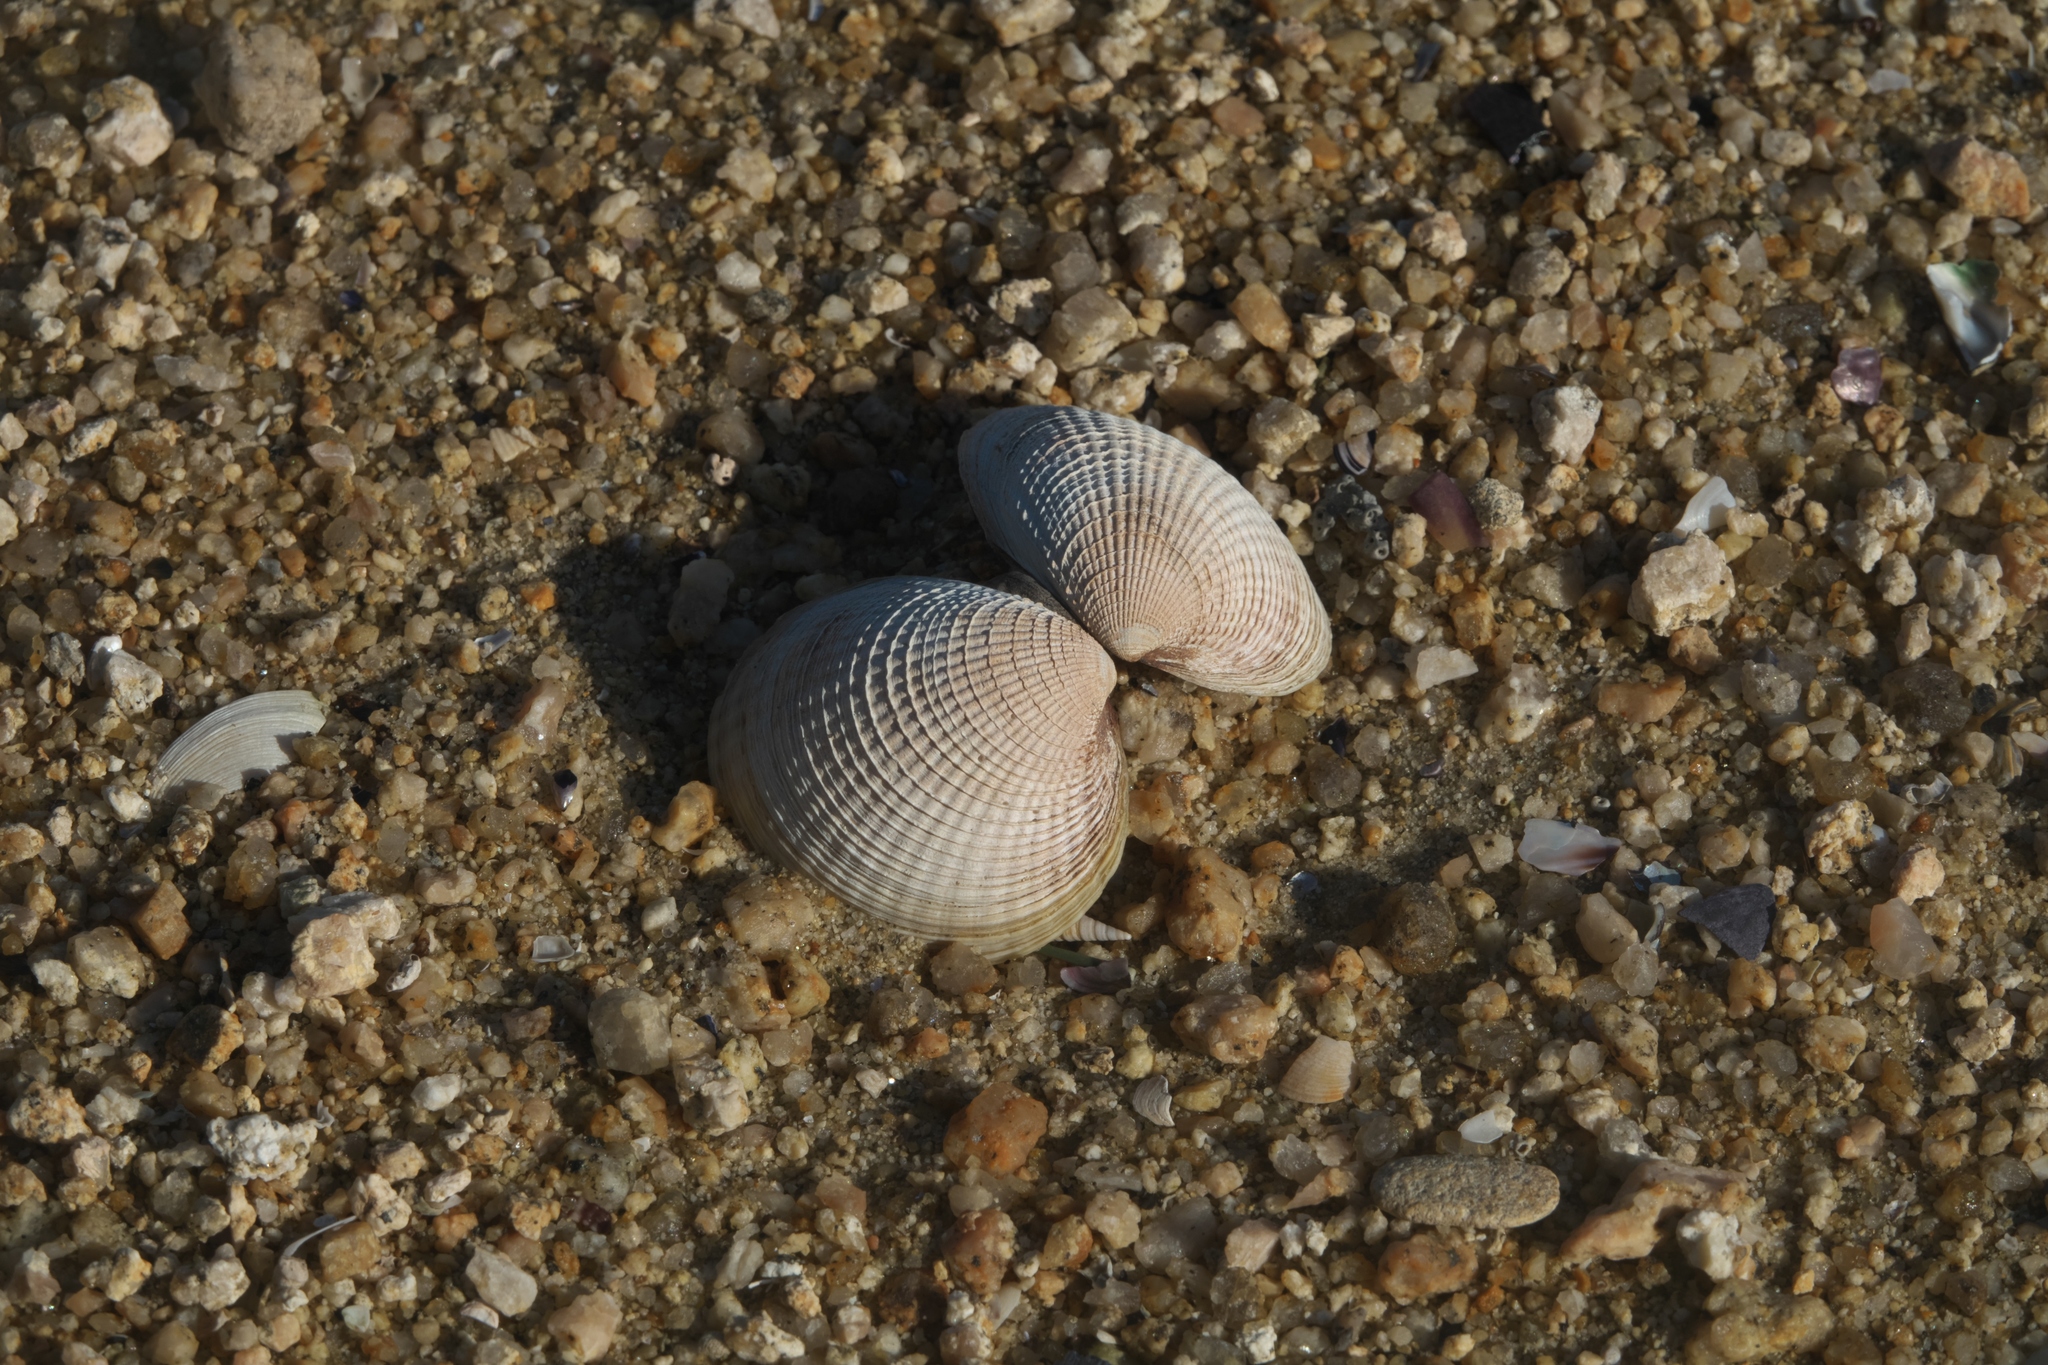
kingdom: Animalia
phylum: Mollusca
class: Bivalvia
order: Venerida
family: Veneridae
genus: Austrovenus
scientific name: Austrovenus stutchburyi
